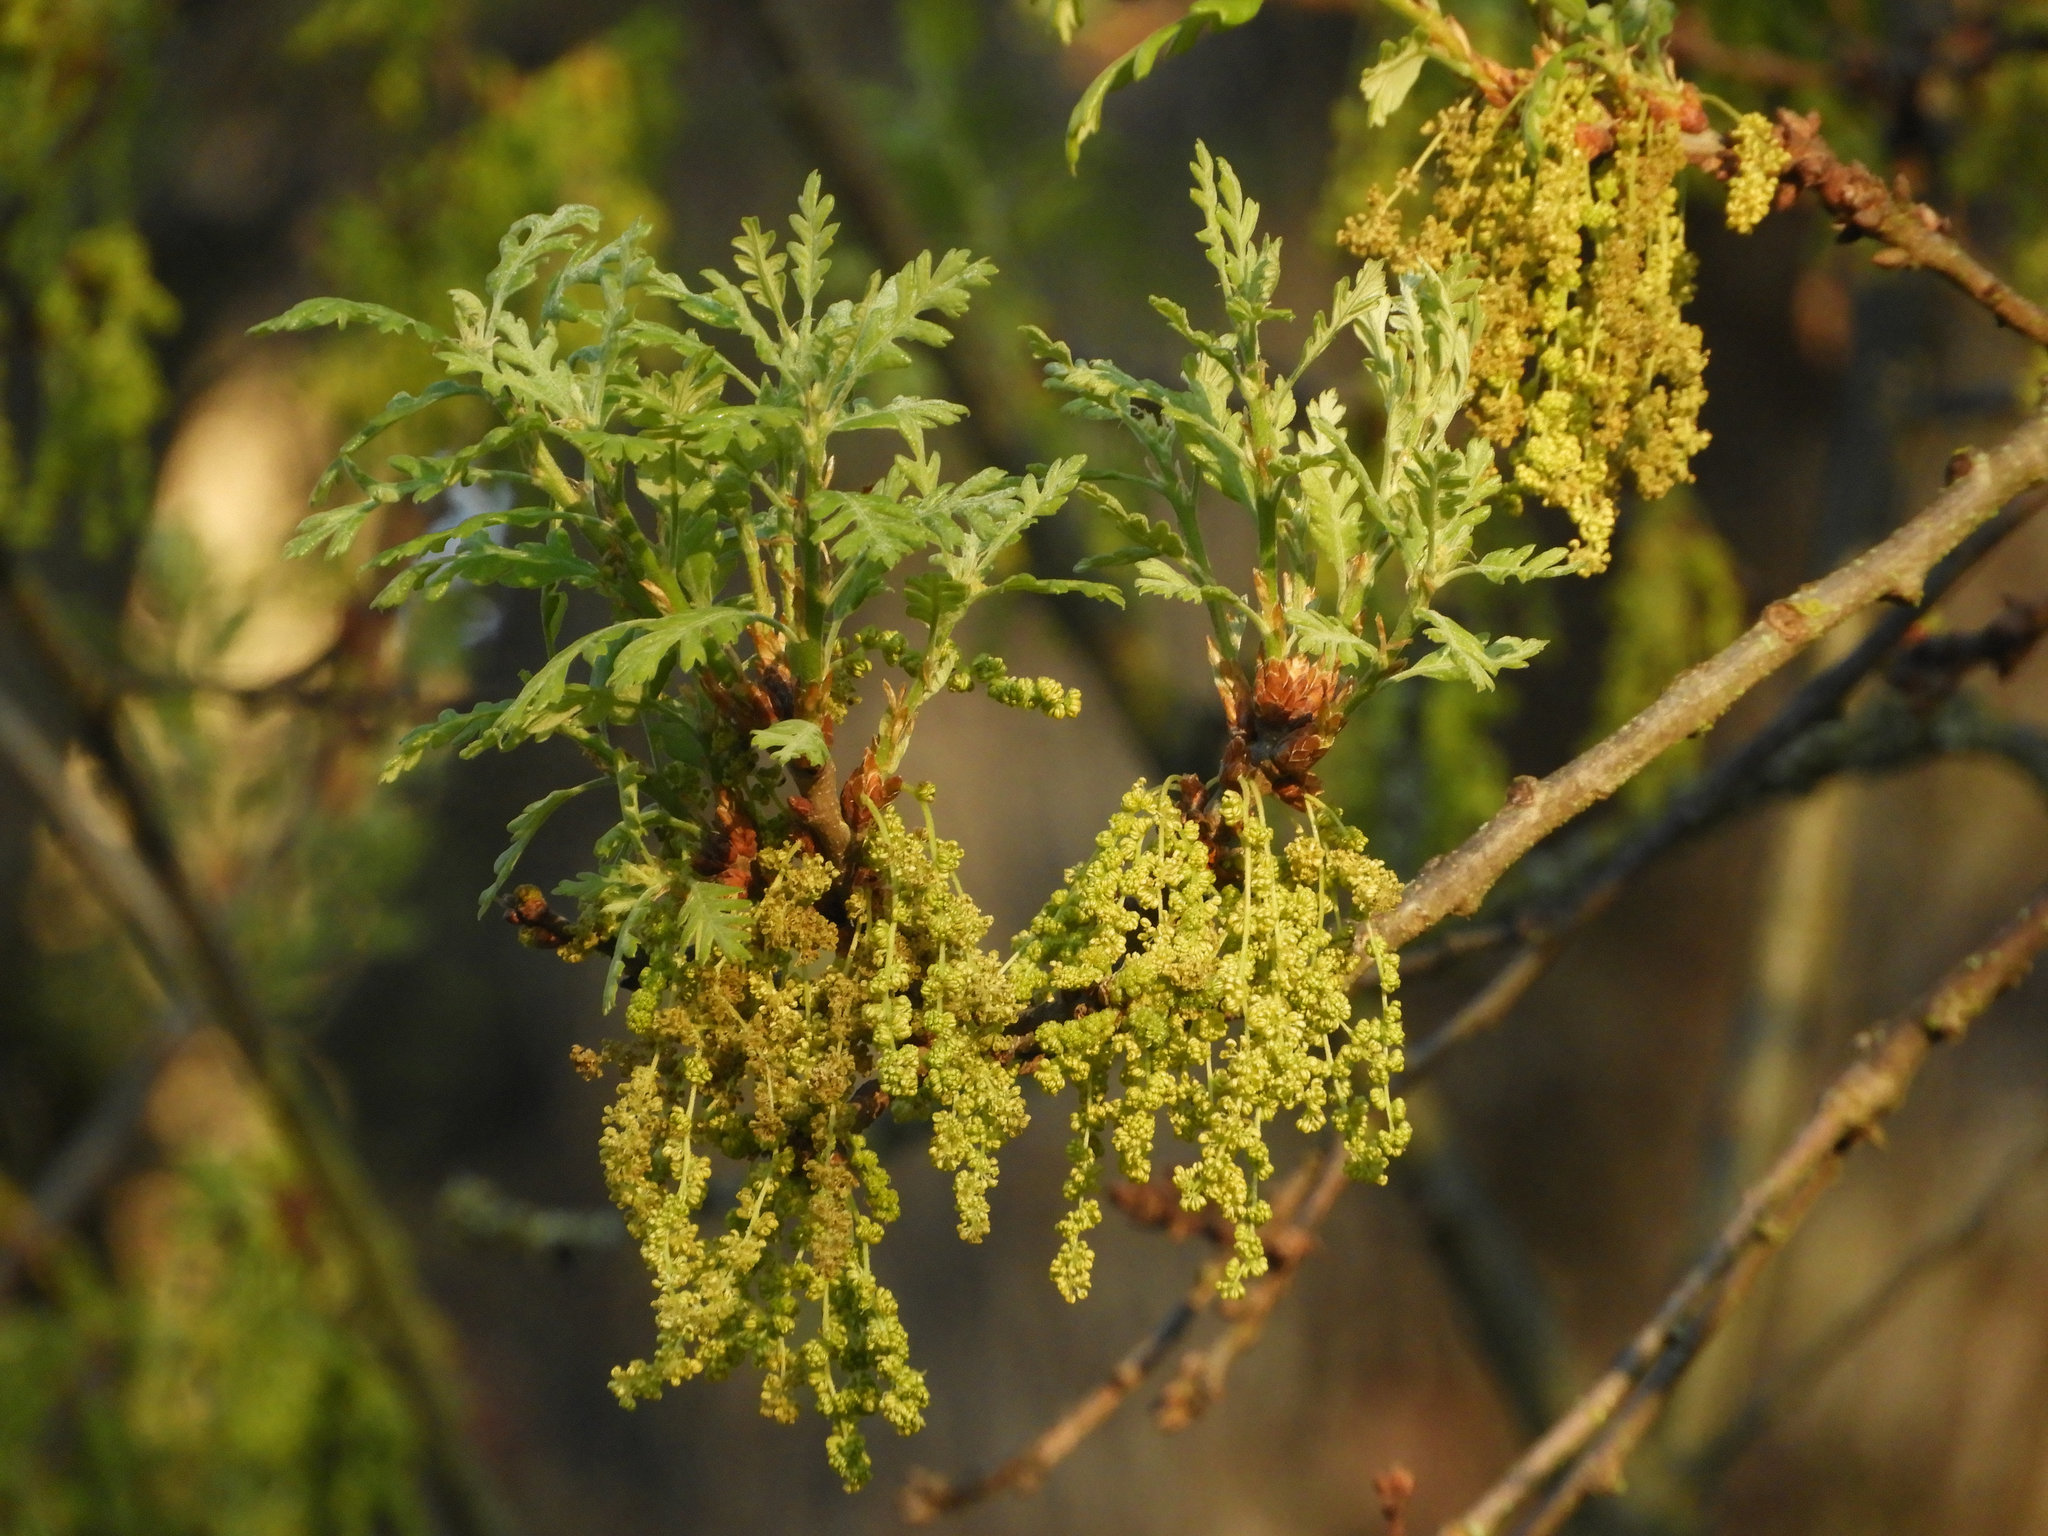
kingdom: Plantae
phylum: Tracheophyta
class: Magnoliopsida
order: Fagales
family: Fagaceae
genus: Quercus
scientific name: Quercus lobata
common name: Valley oak
